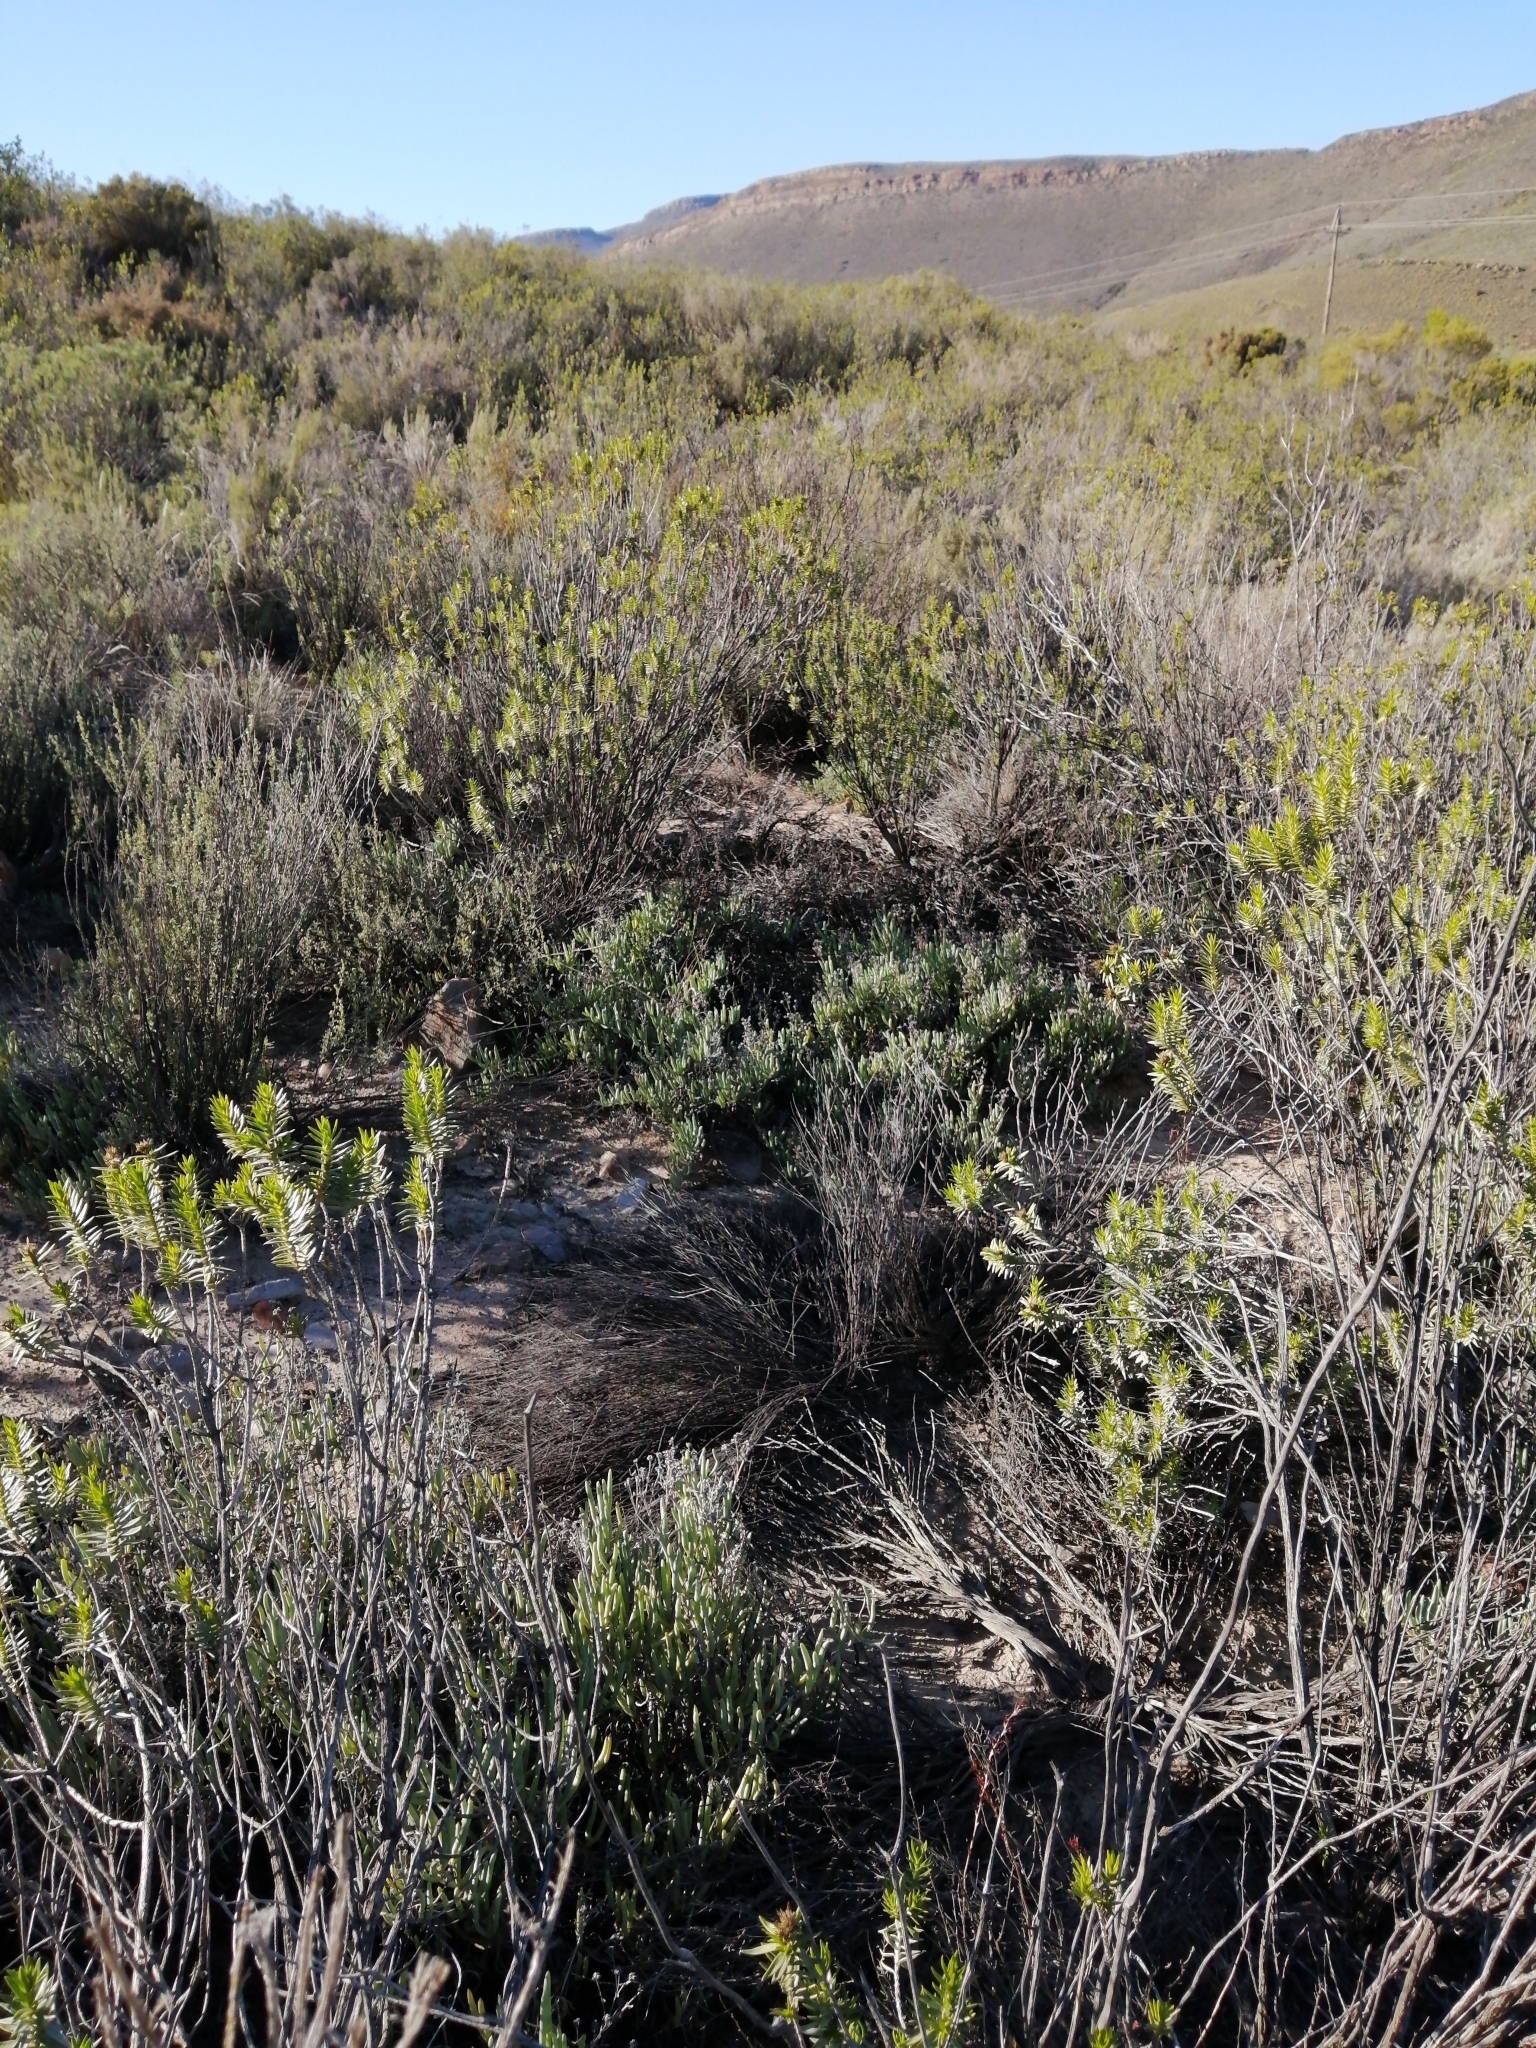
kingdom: Plantae
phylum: Tracheophyta
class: Magnoliopsida
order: Asterales
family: Asteraceae
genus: Pteronia
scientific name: Pteronia fasciculata
